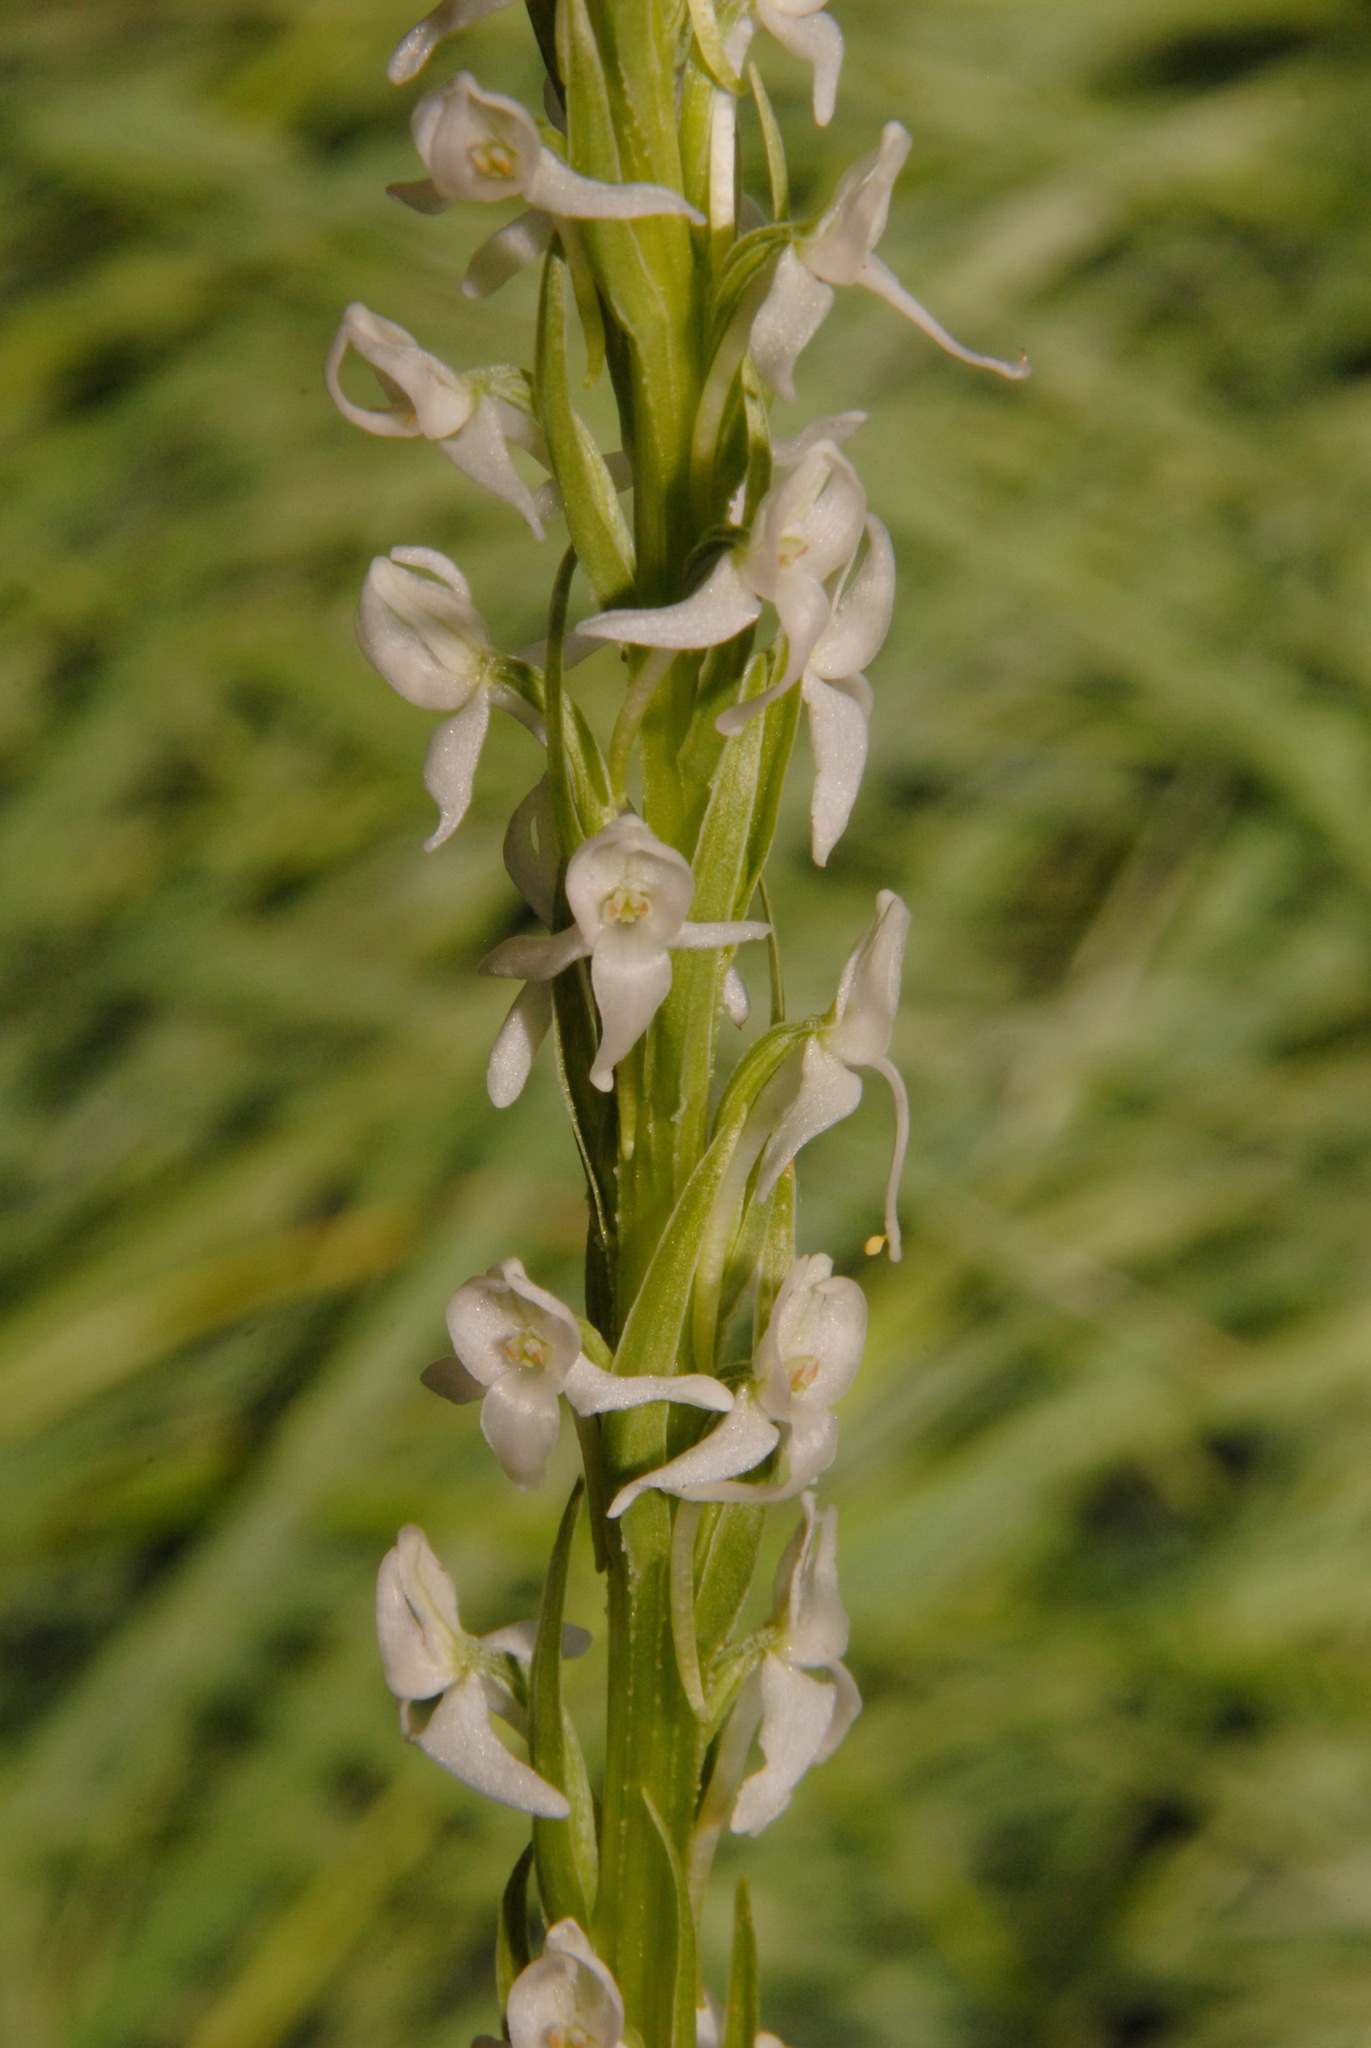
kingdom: Plantae
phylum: Tracheophyta
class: Liliopsida
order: Asparagales
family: Orchidaceae
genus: Platanthera
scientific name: Platanthera dilatata
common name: Bog candles
